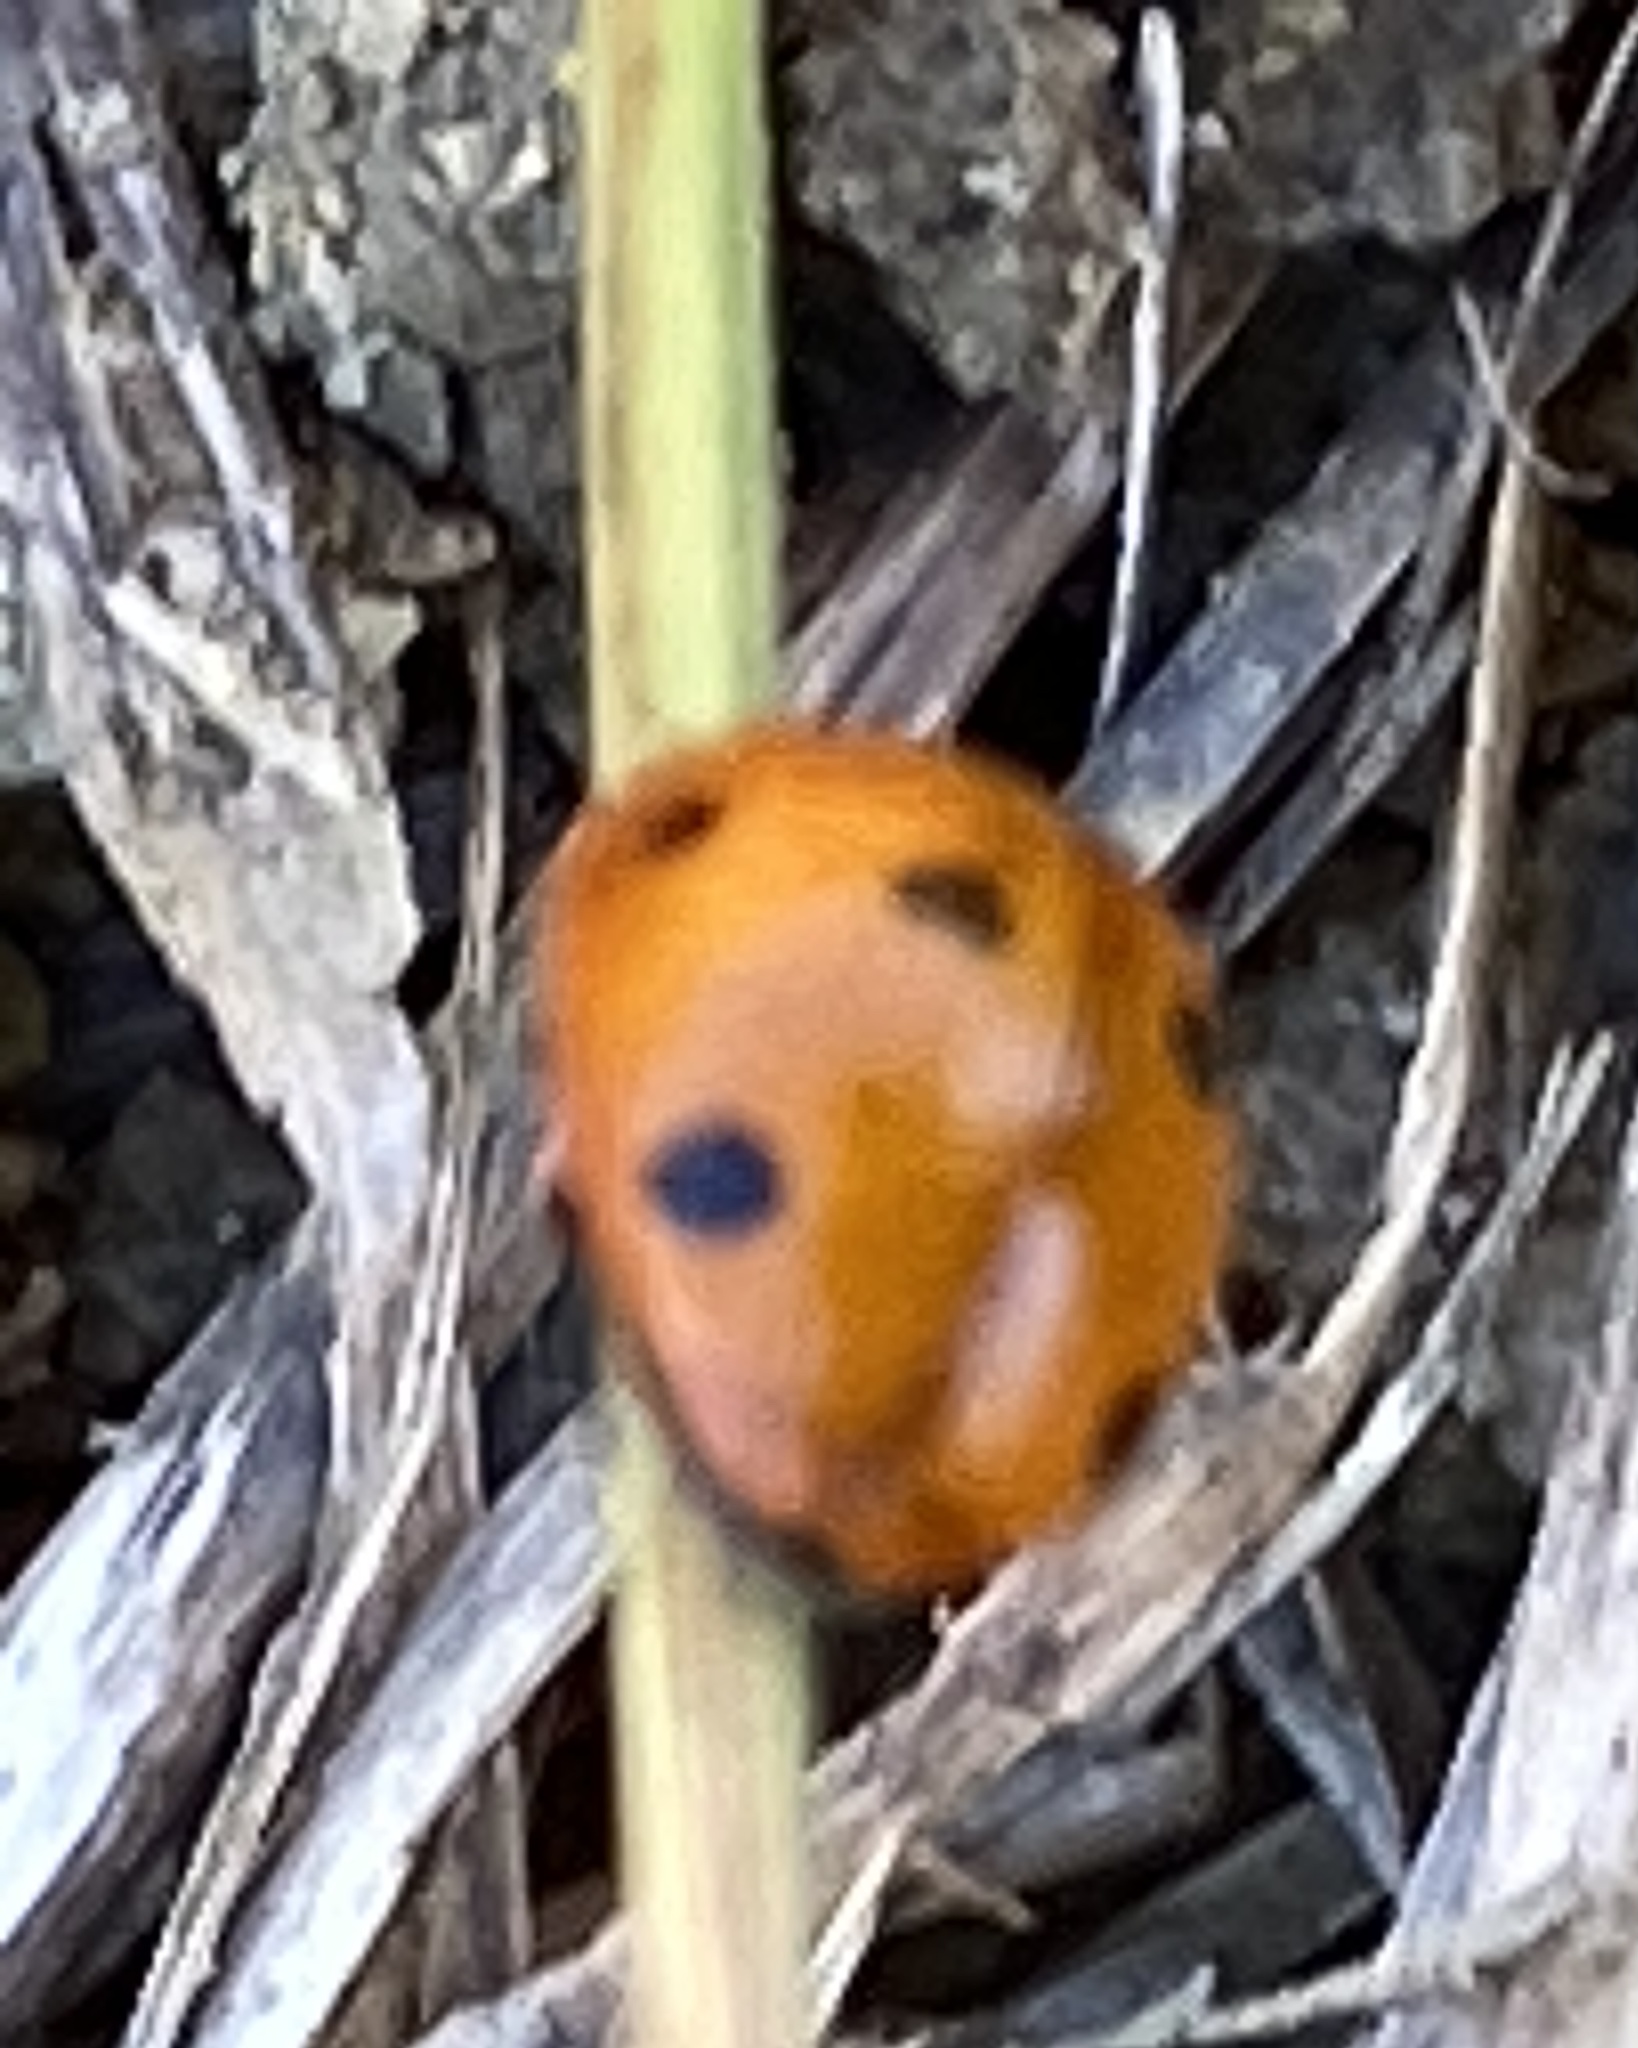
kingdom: Animalia
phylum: Arthropoda
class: Insecta
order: Coleoptera
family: Coccinellidae
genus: Coccinella
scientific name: Coccinella septempunctata
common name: Sevenspotted lady beetle
